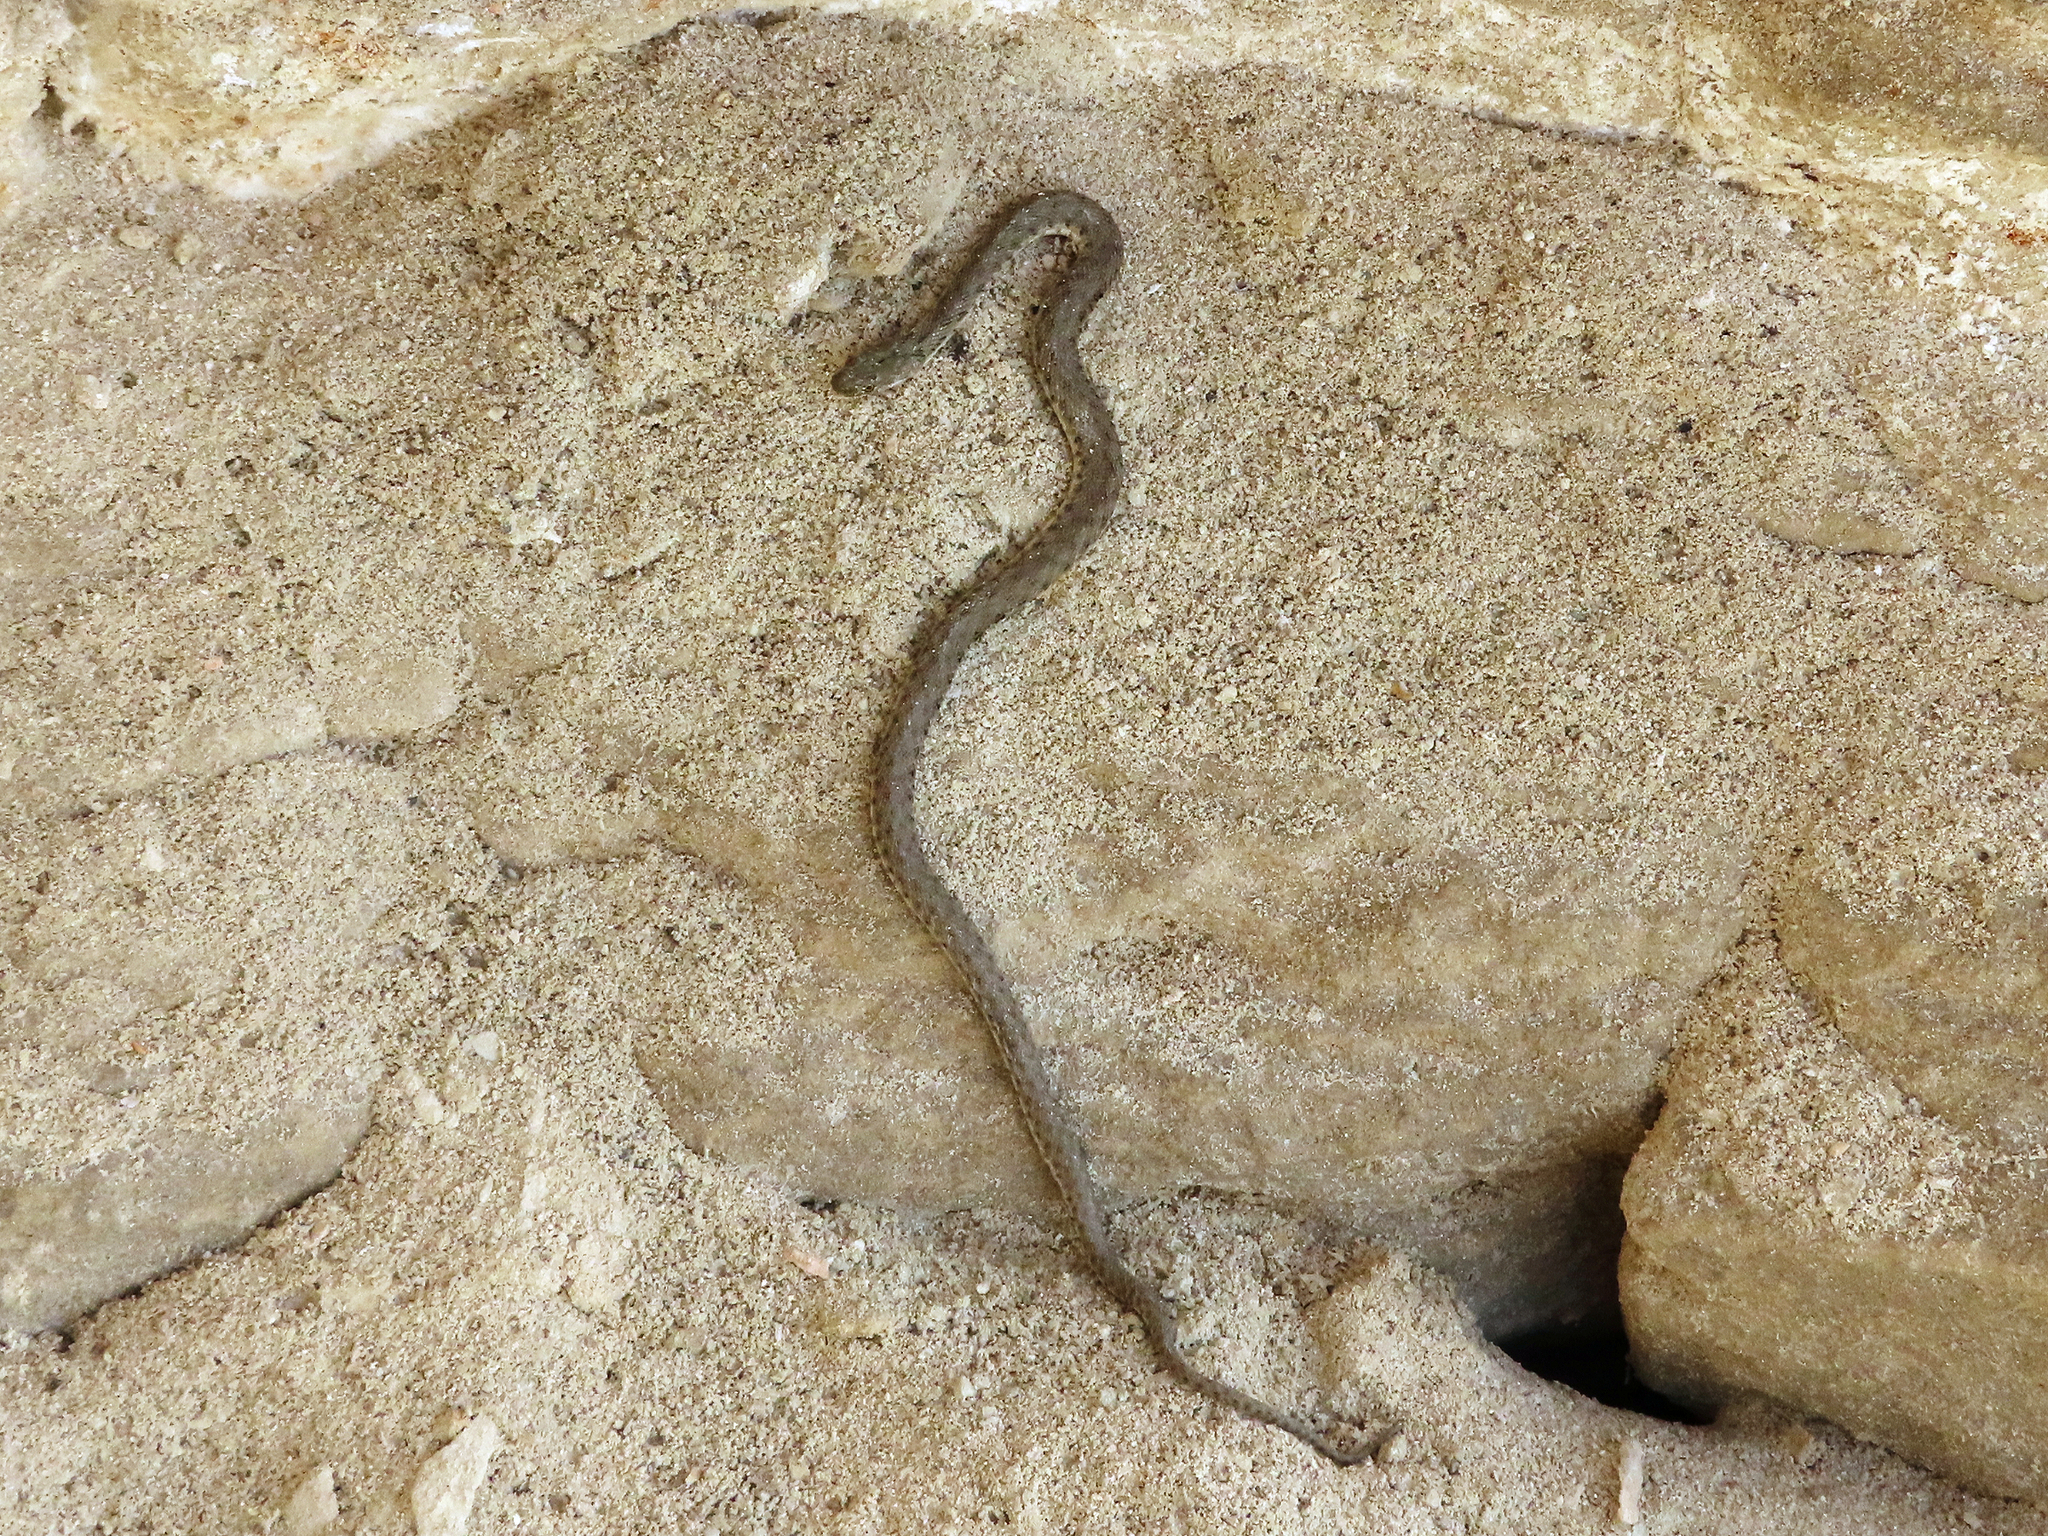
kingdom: Animalia
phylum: Chordata
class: Squamata
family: Colubridae
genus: Natrix
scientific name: Natrix tessellata
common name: Dice snake
